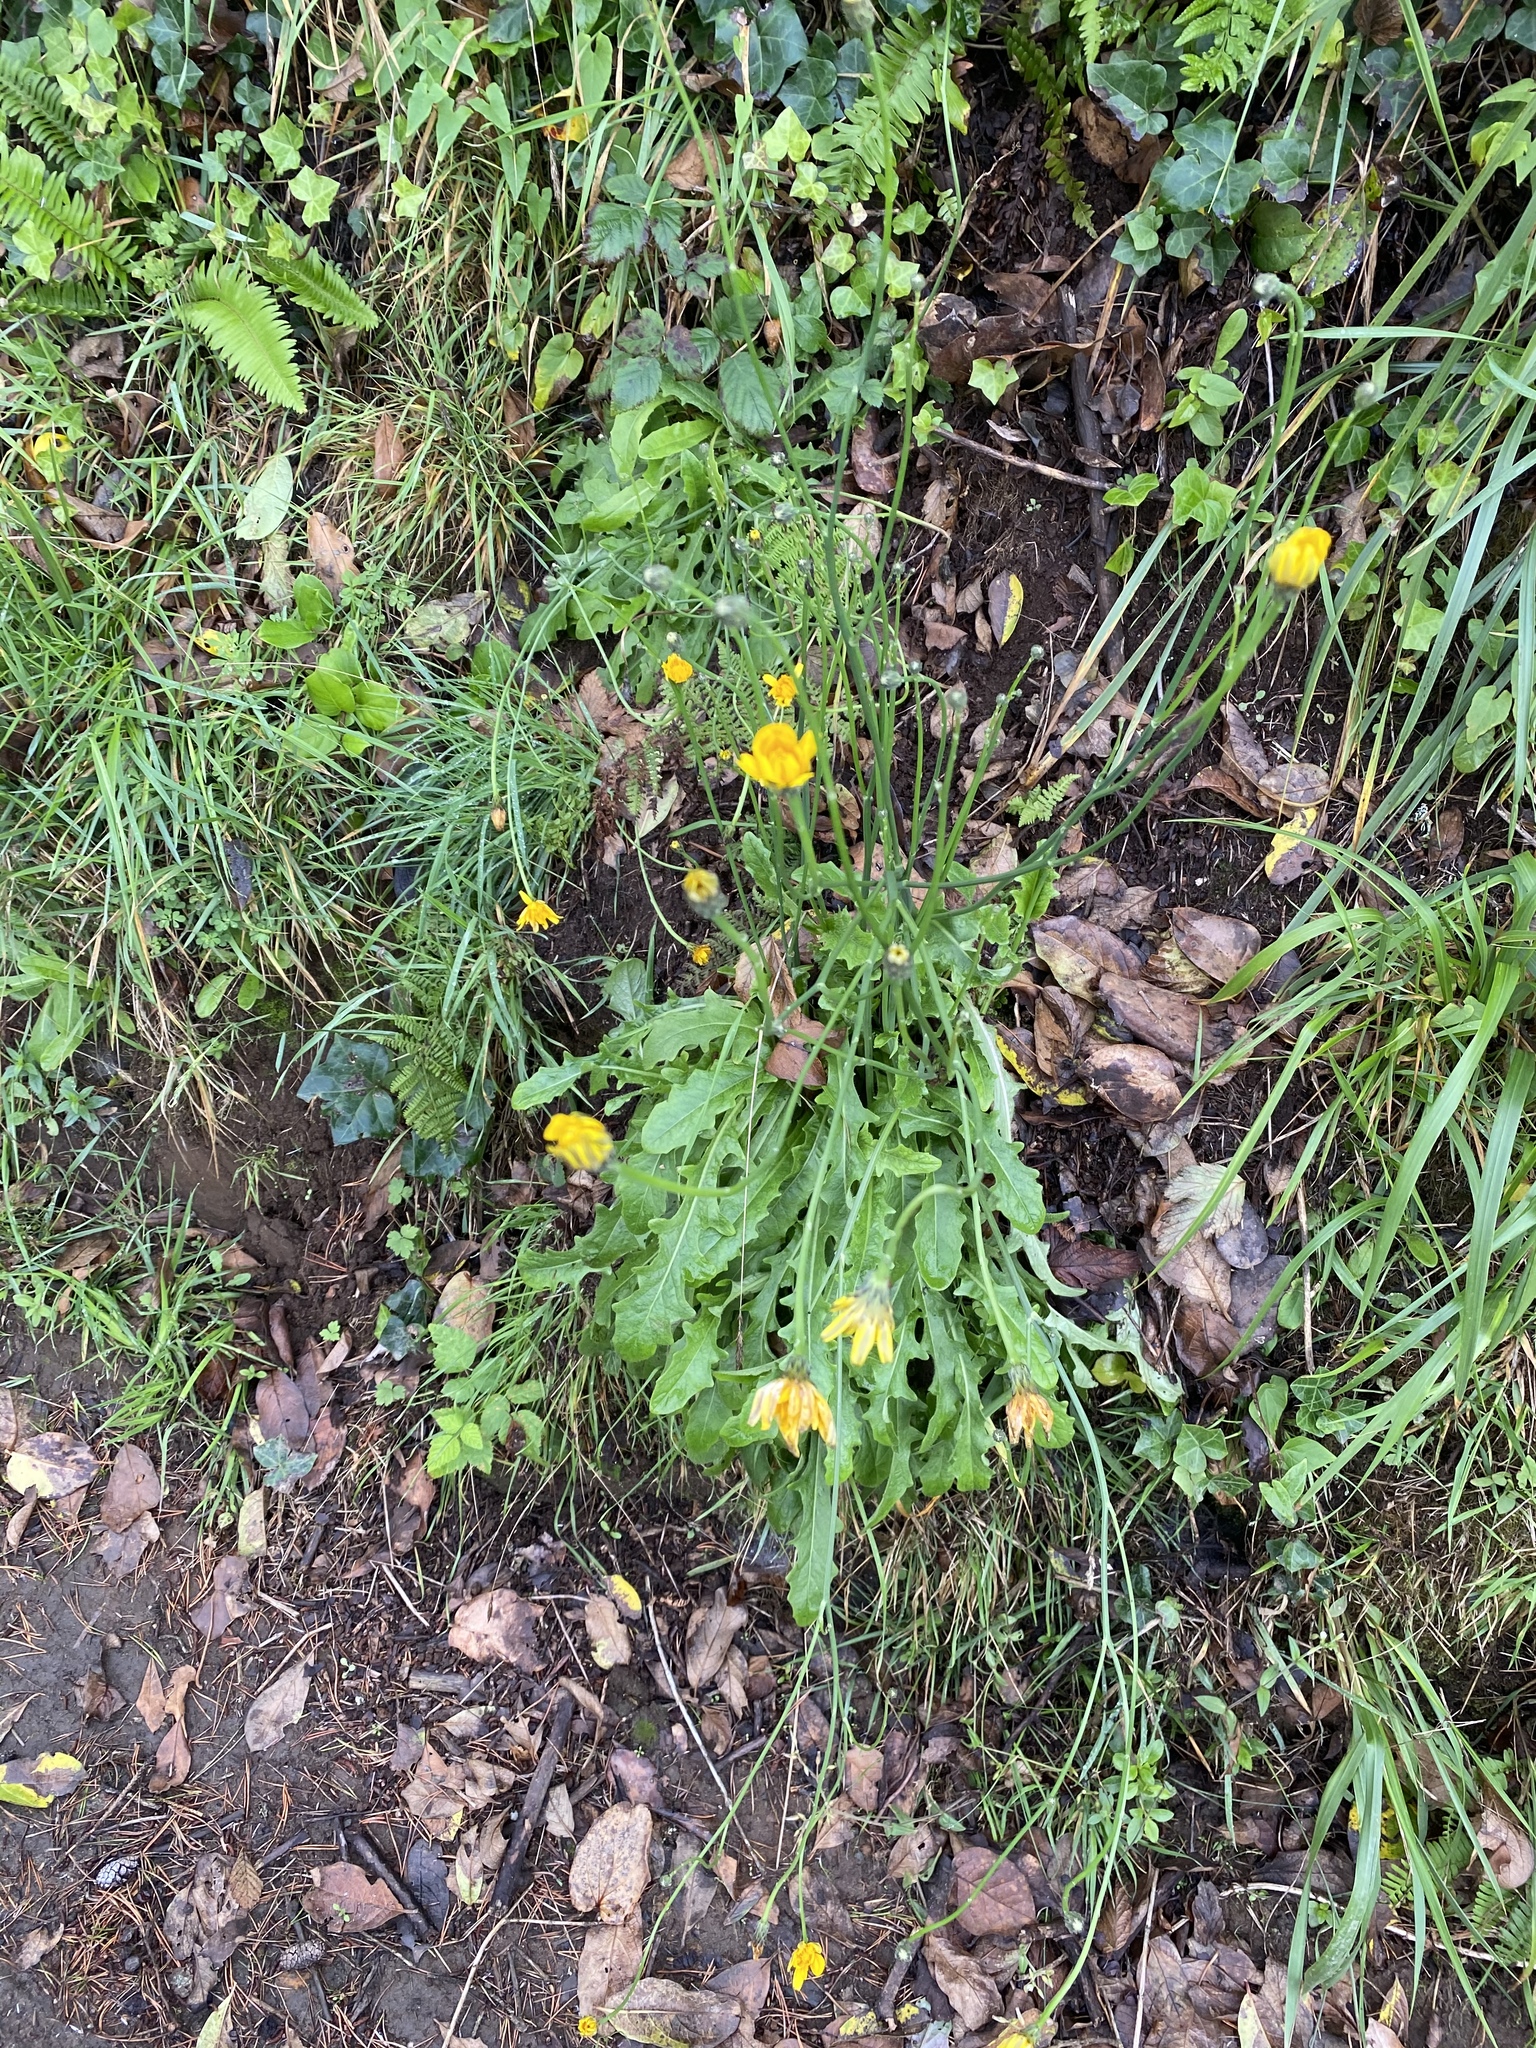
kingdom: Plantae
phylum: Tracheophyta
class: Magnoliopsida
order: Asterales
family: Asteraceae
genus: Hypochaeris
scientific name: Hypochaeris radicata
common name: Flatweed
